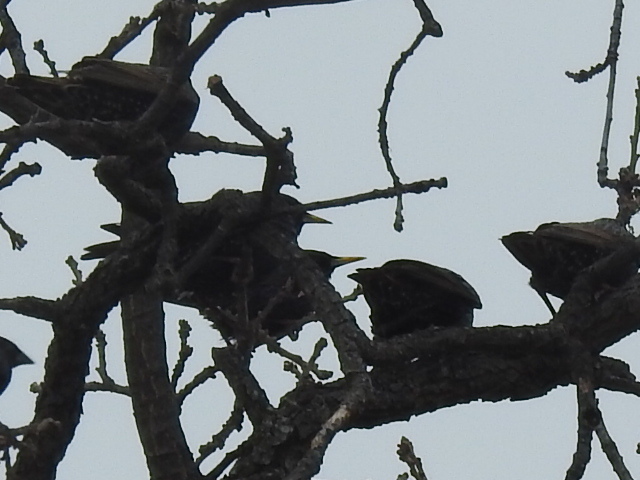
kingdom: Animalia
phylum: Chordata
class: Aves
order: Passeriformes
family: Sturnidae
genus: Sturnus
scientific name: Sturnus vulgaris
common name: Common starling
